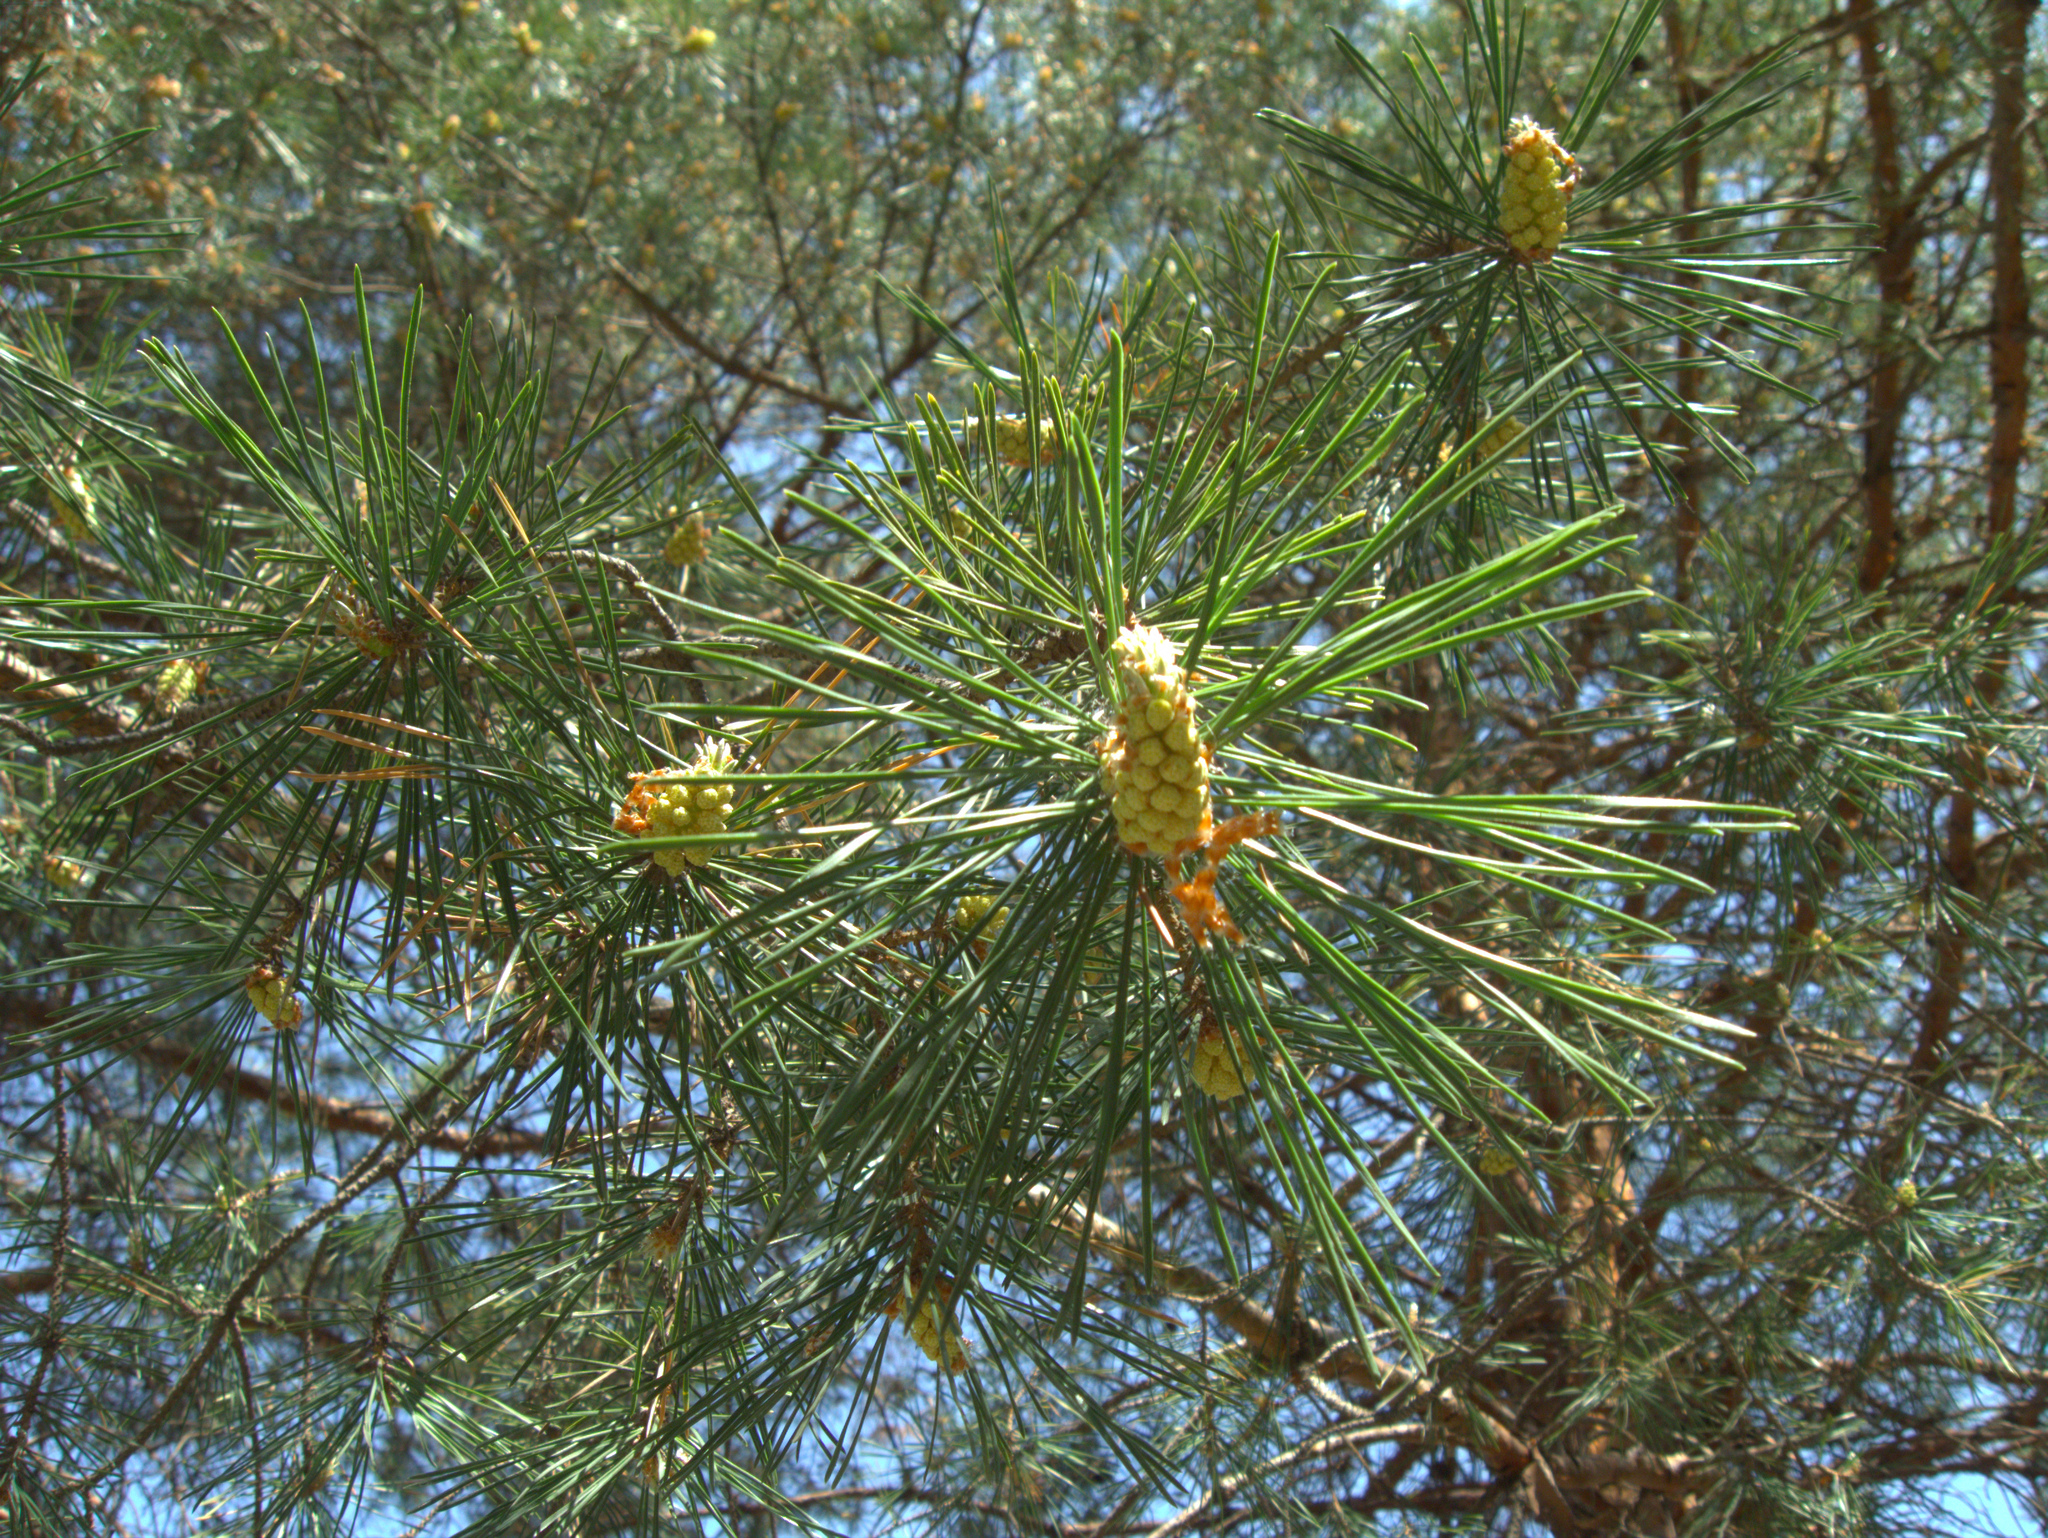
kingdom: Plantae
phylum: Tracheophyta
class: Pinopsida
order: Pinales
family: Pinaceae
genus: Pinus
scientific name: Pinus sylvestris
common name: Scots pine
